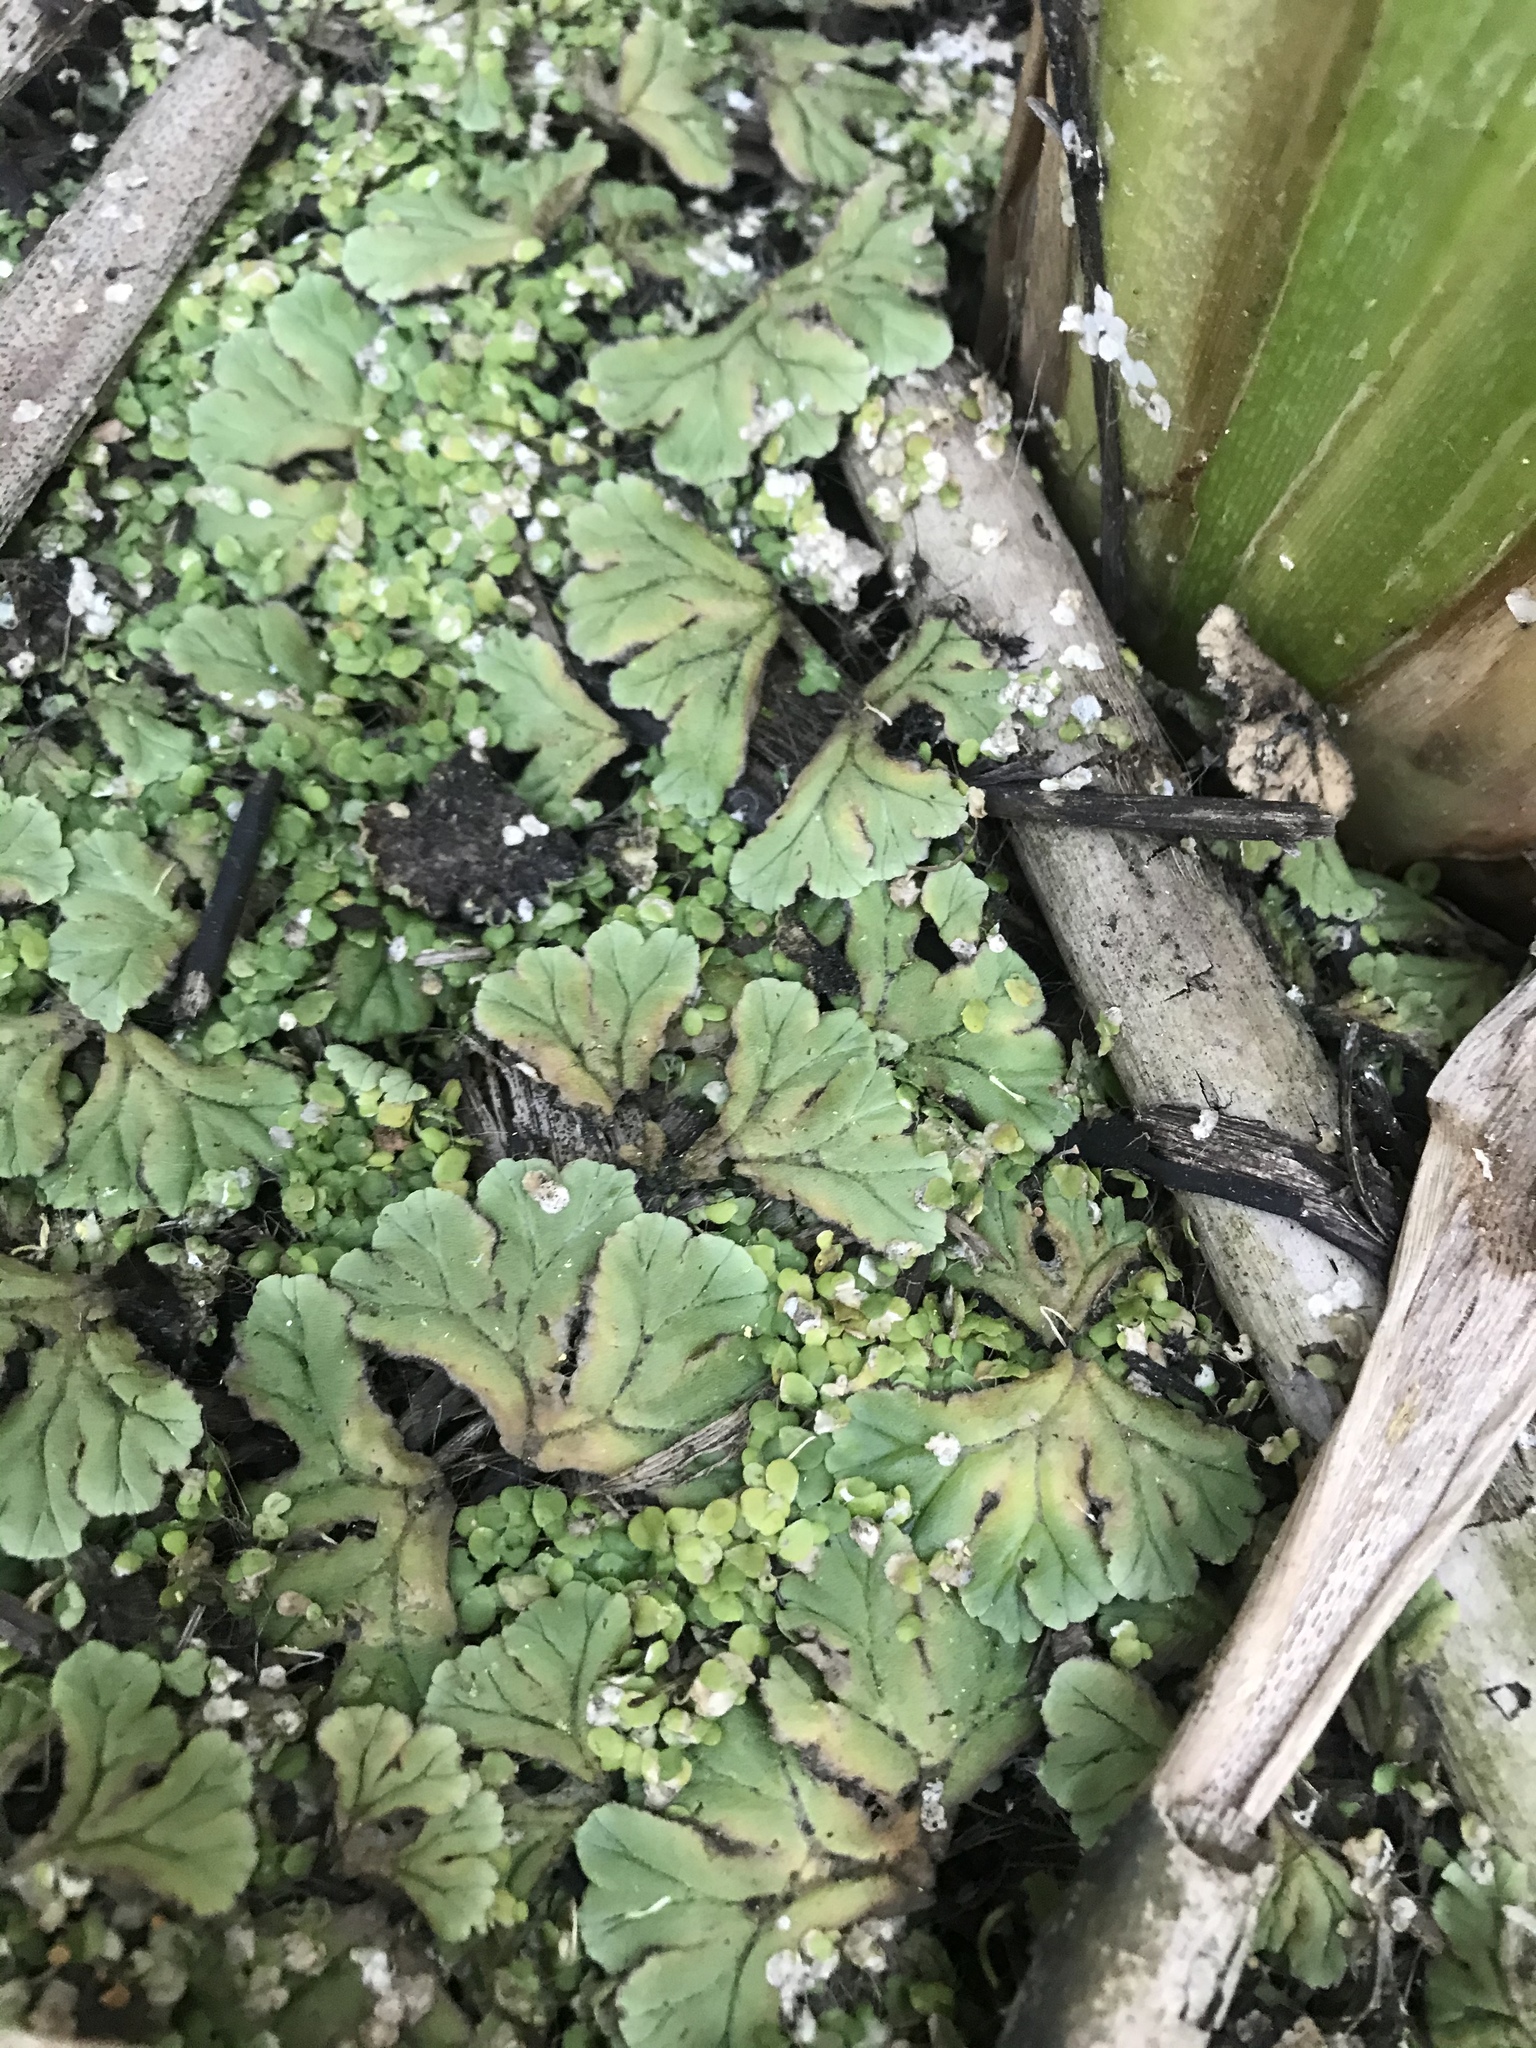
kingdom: Plantae
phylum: Marchantiophyta
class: Marchantiopsida
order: Marchantiales
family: Ricciaceae
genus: Ricciocarpos
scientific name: Ricciocarpos natans
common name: Purple-fringed liverwort
